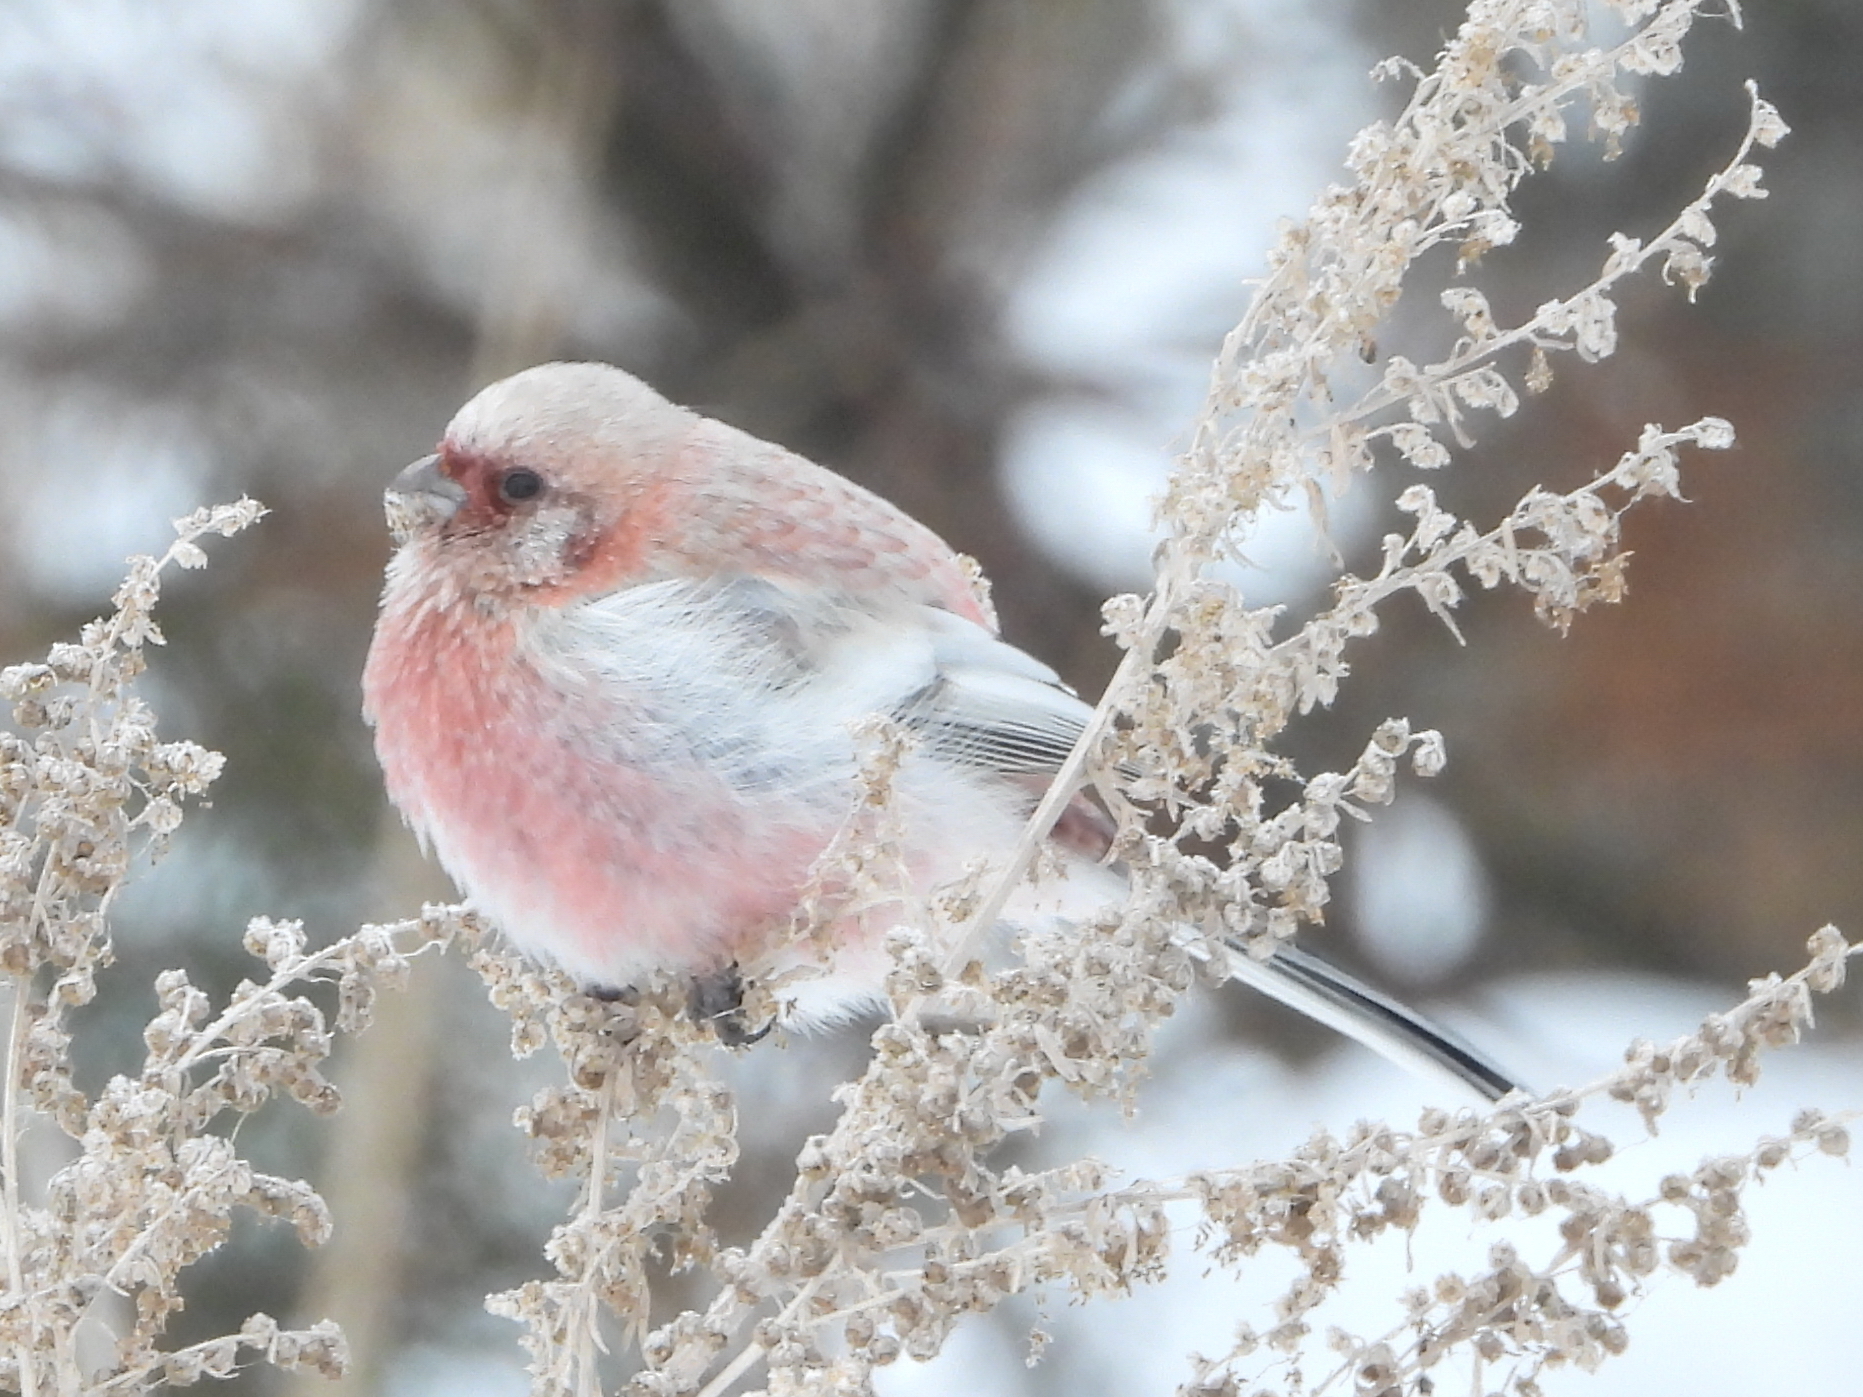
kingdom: Animalia
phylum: Chordata
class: Aves
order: Passeriformes
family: Fringillidae
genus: Carpodacus
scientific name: Carpodacus sibiricus
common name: Long-tailed rosefinch
